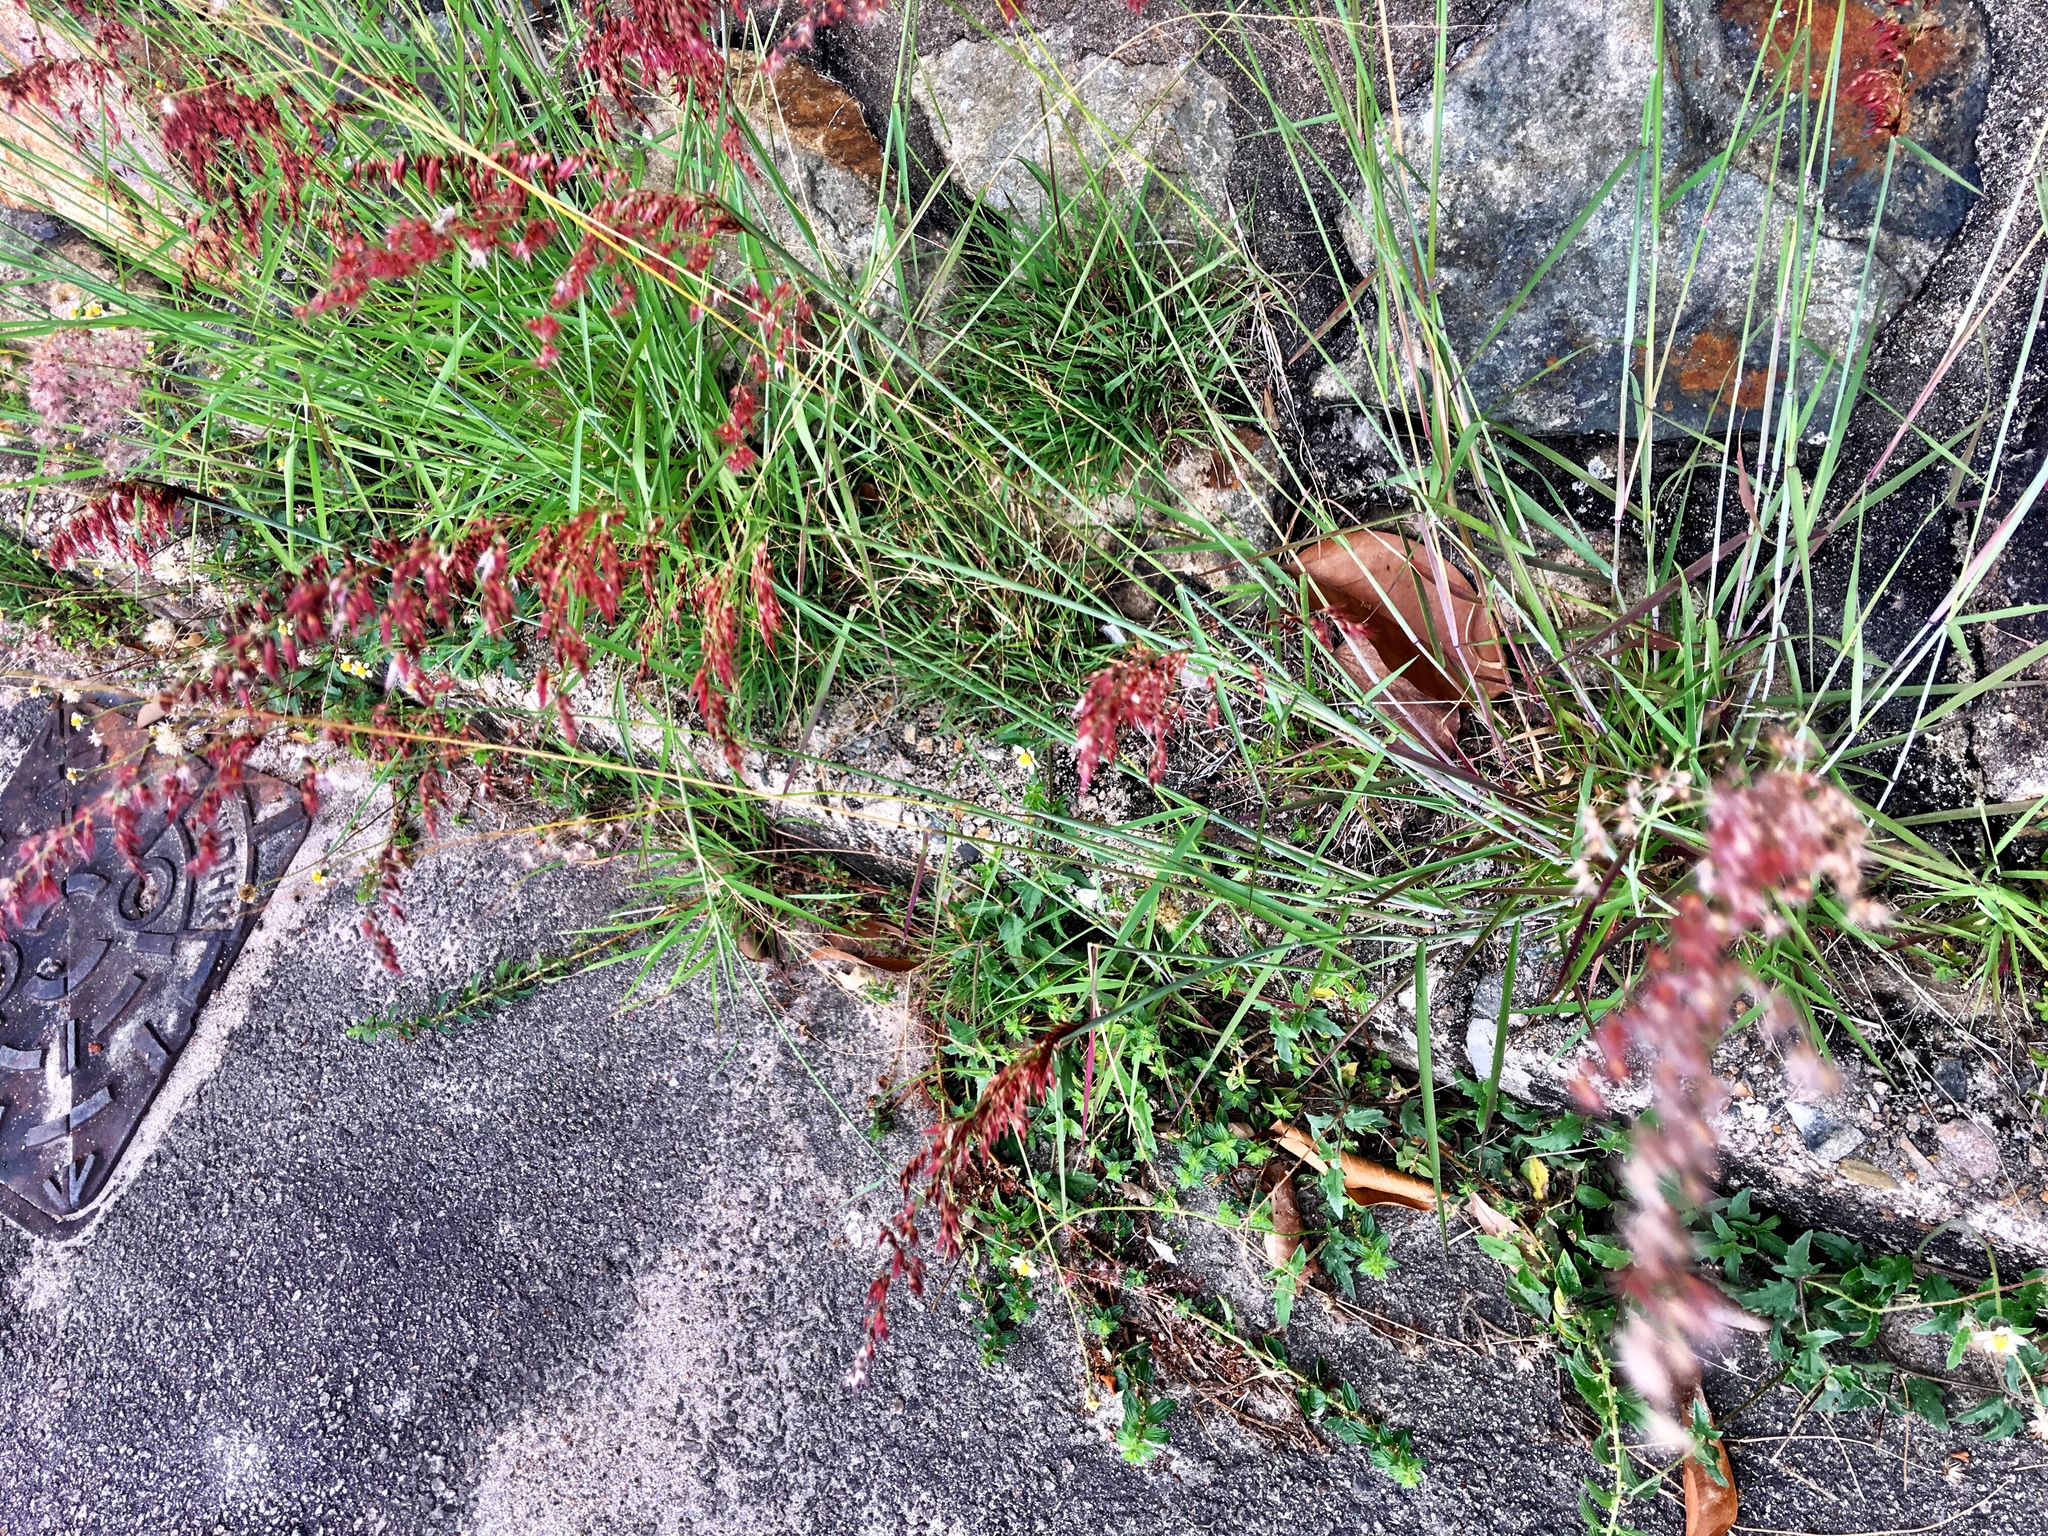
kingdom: Plantae
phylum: Tracheophyta
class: Liliopsida
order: Poales
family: Poaceae
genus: Melinis
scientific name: Melinis repens
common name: Rose natal grass
